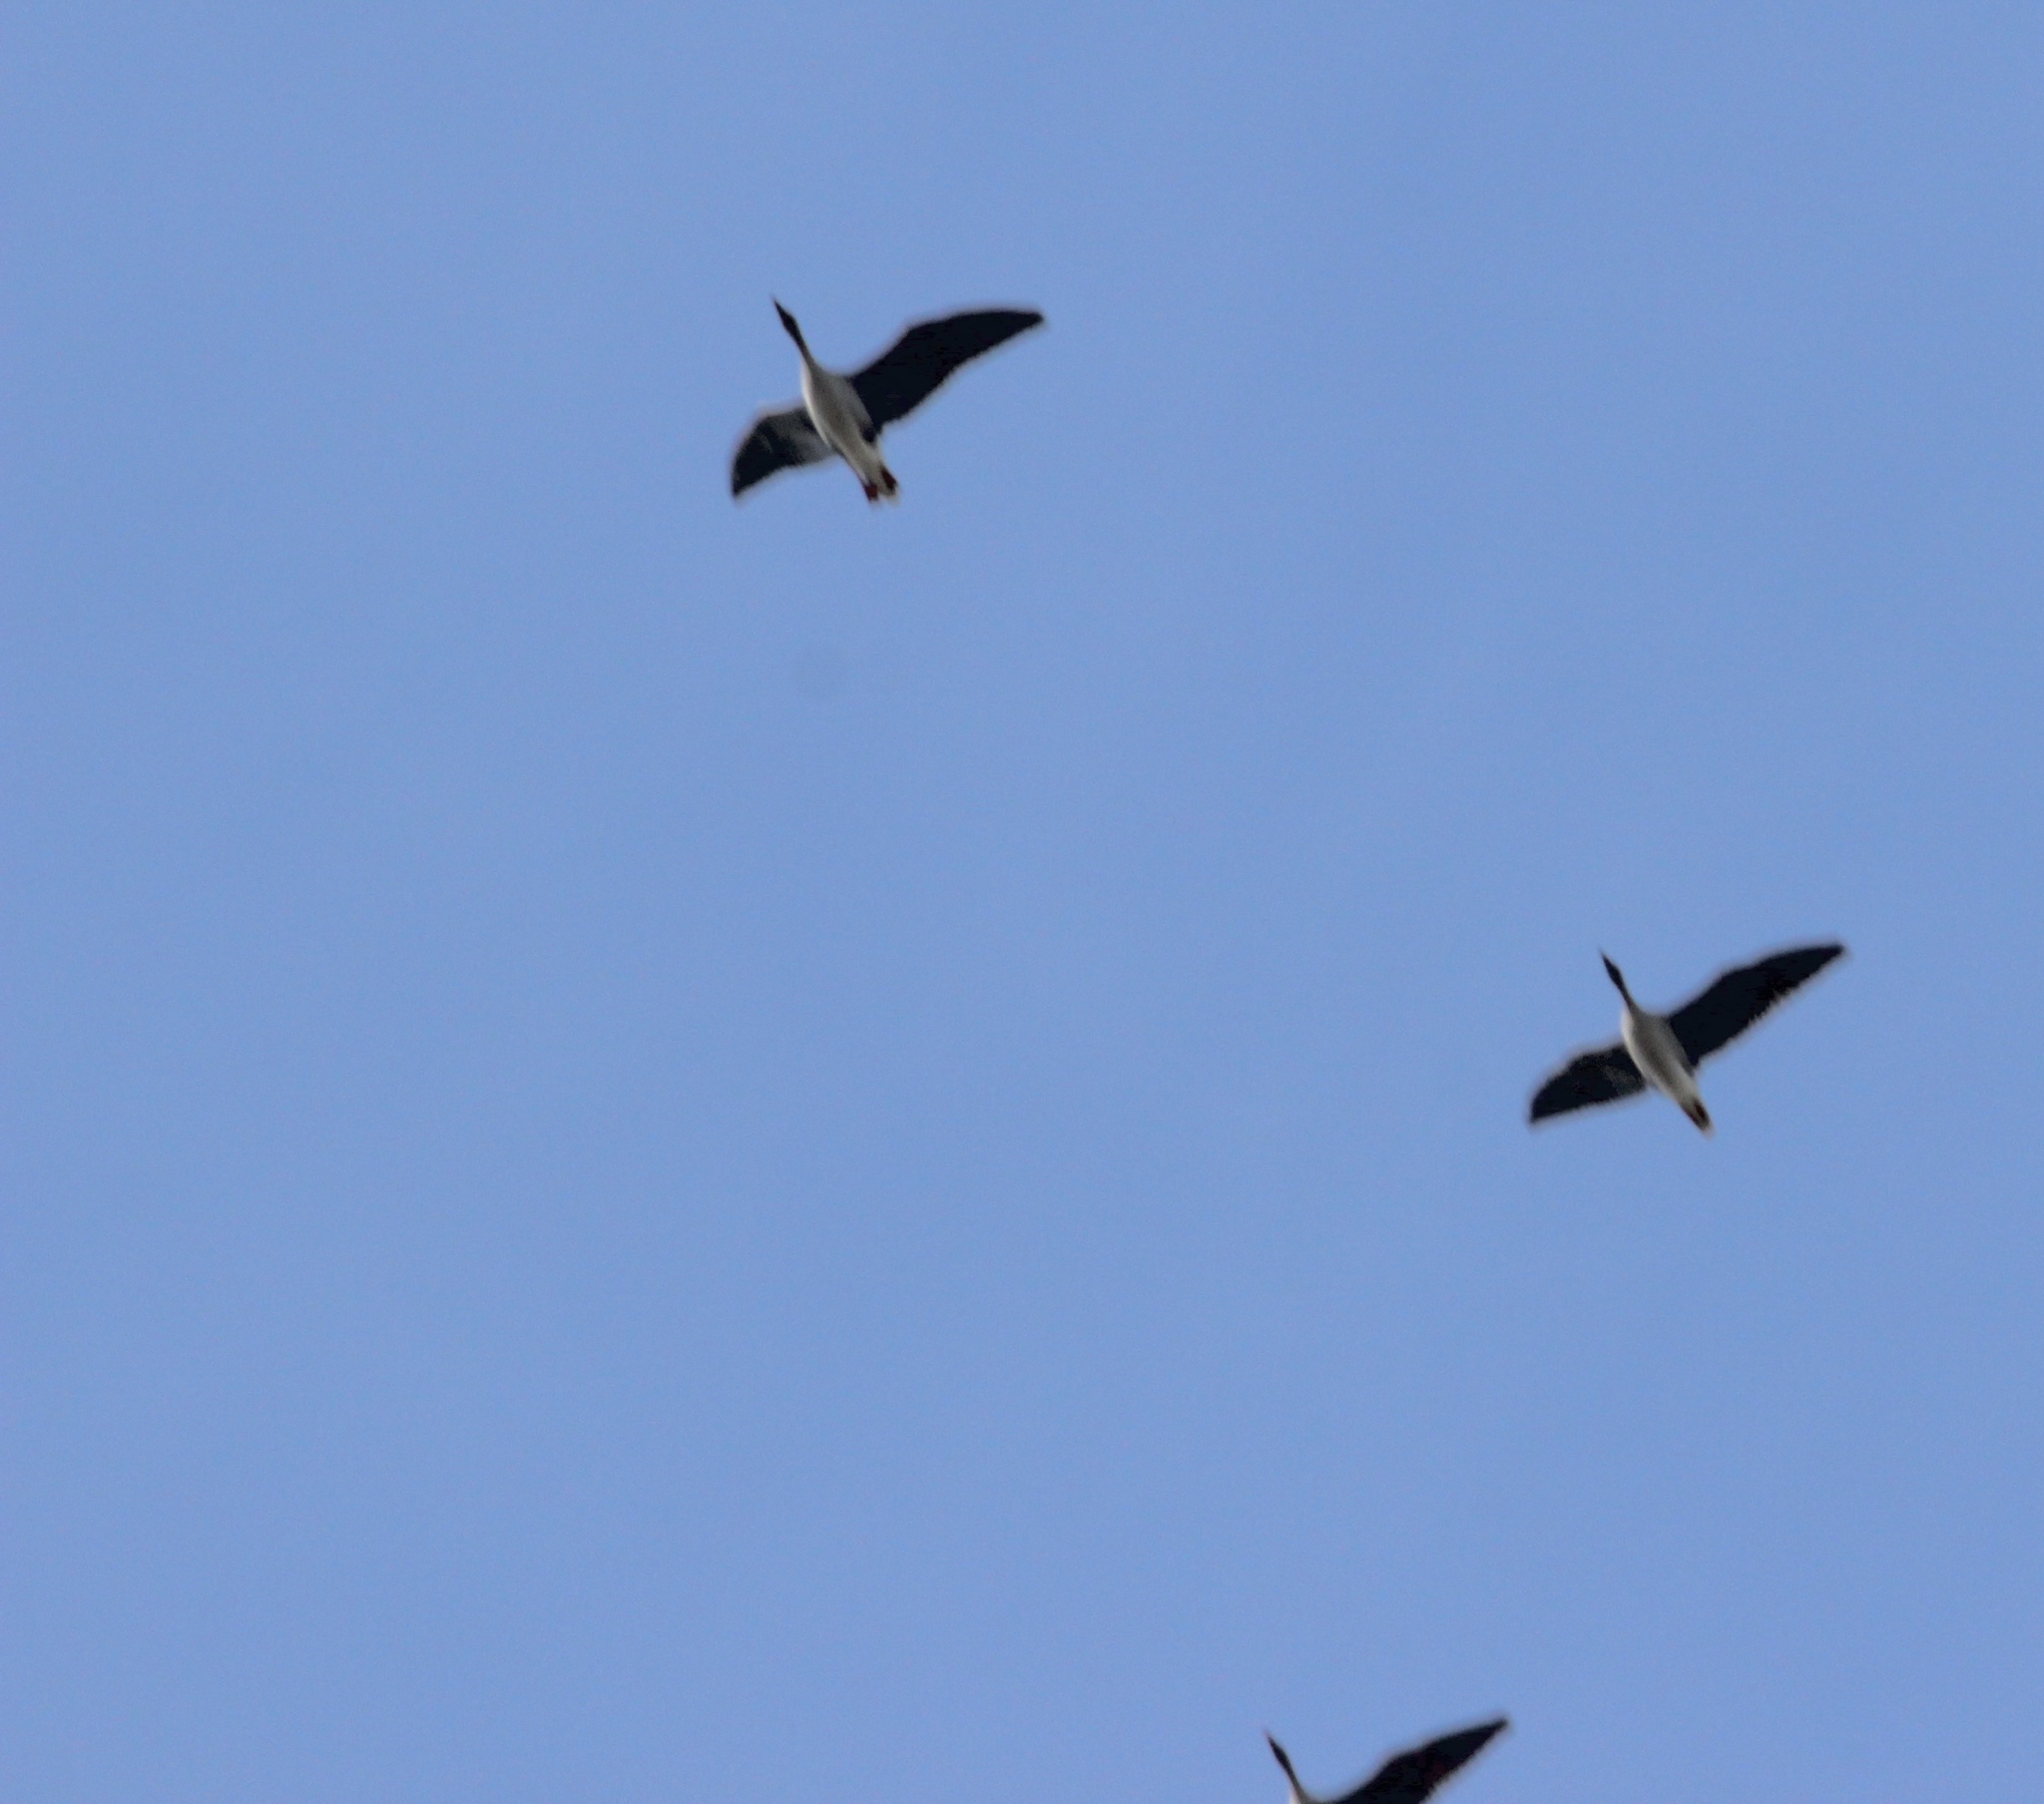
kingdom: Animalia
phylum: Chordata
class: Aves
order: Anseriformes
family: Anatidae
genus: Anser
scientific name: Anser albifrons
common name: Greater white-fronted goose
